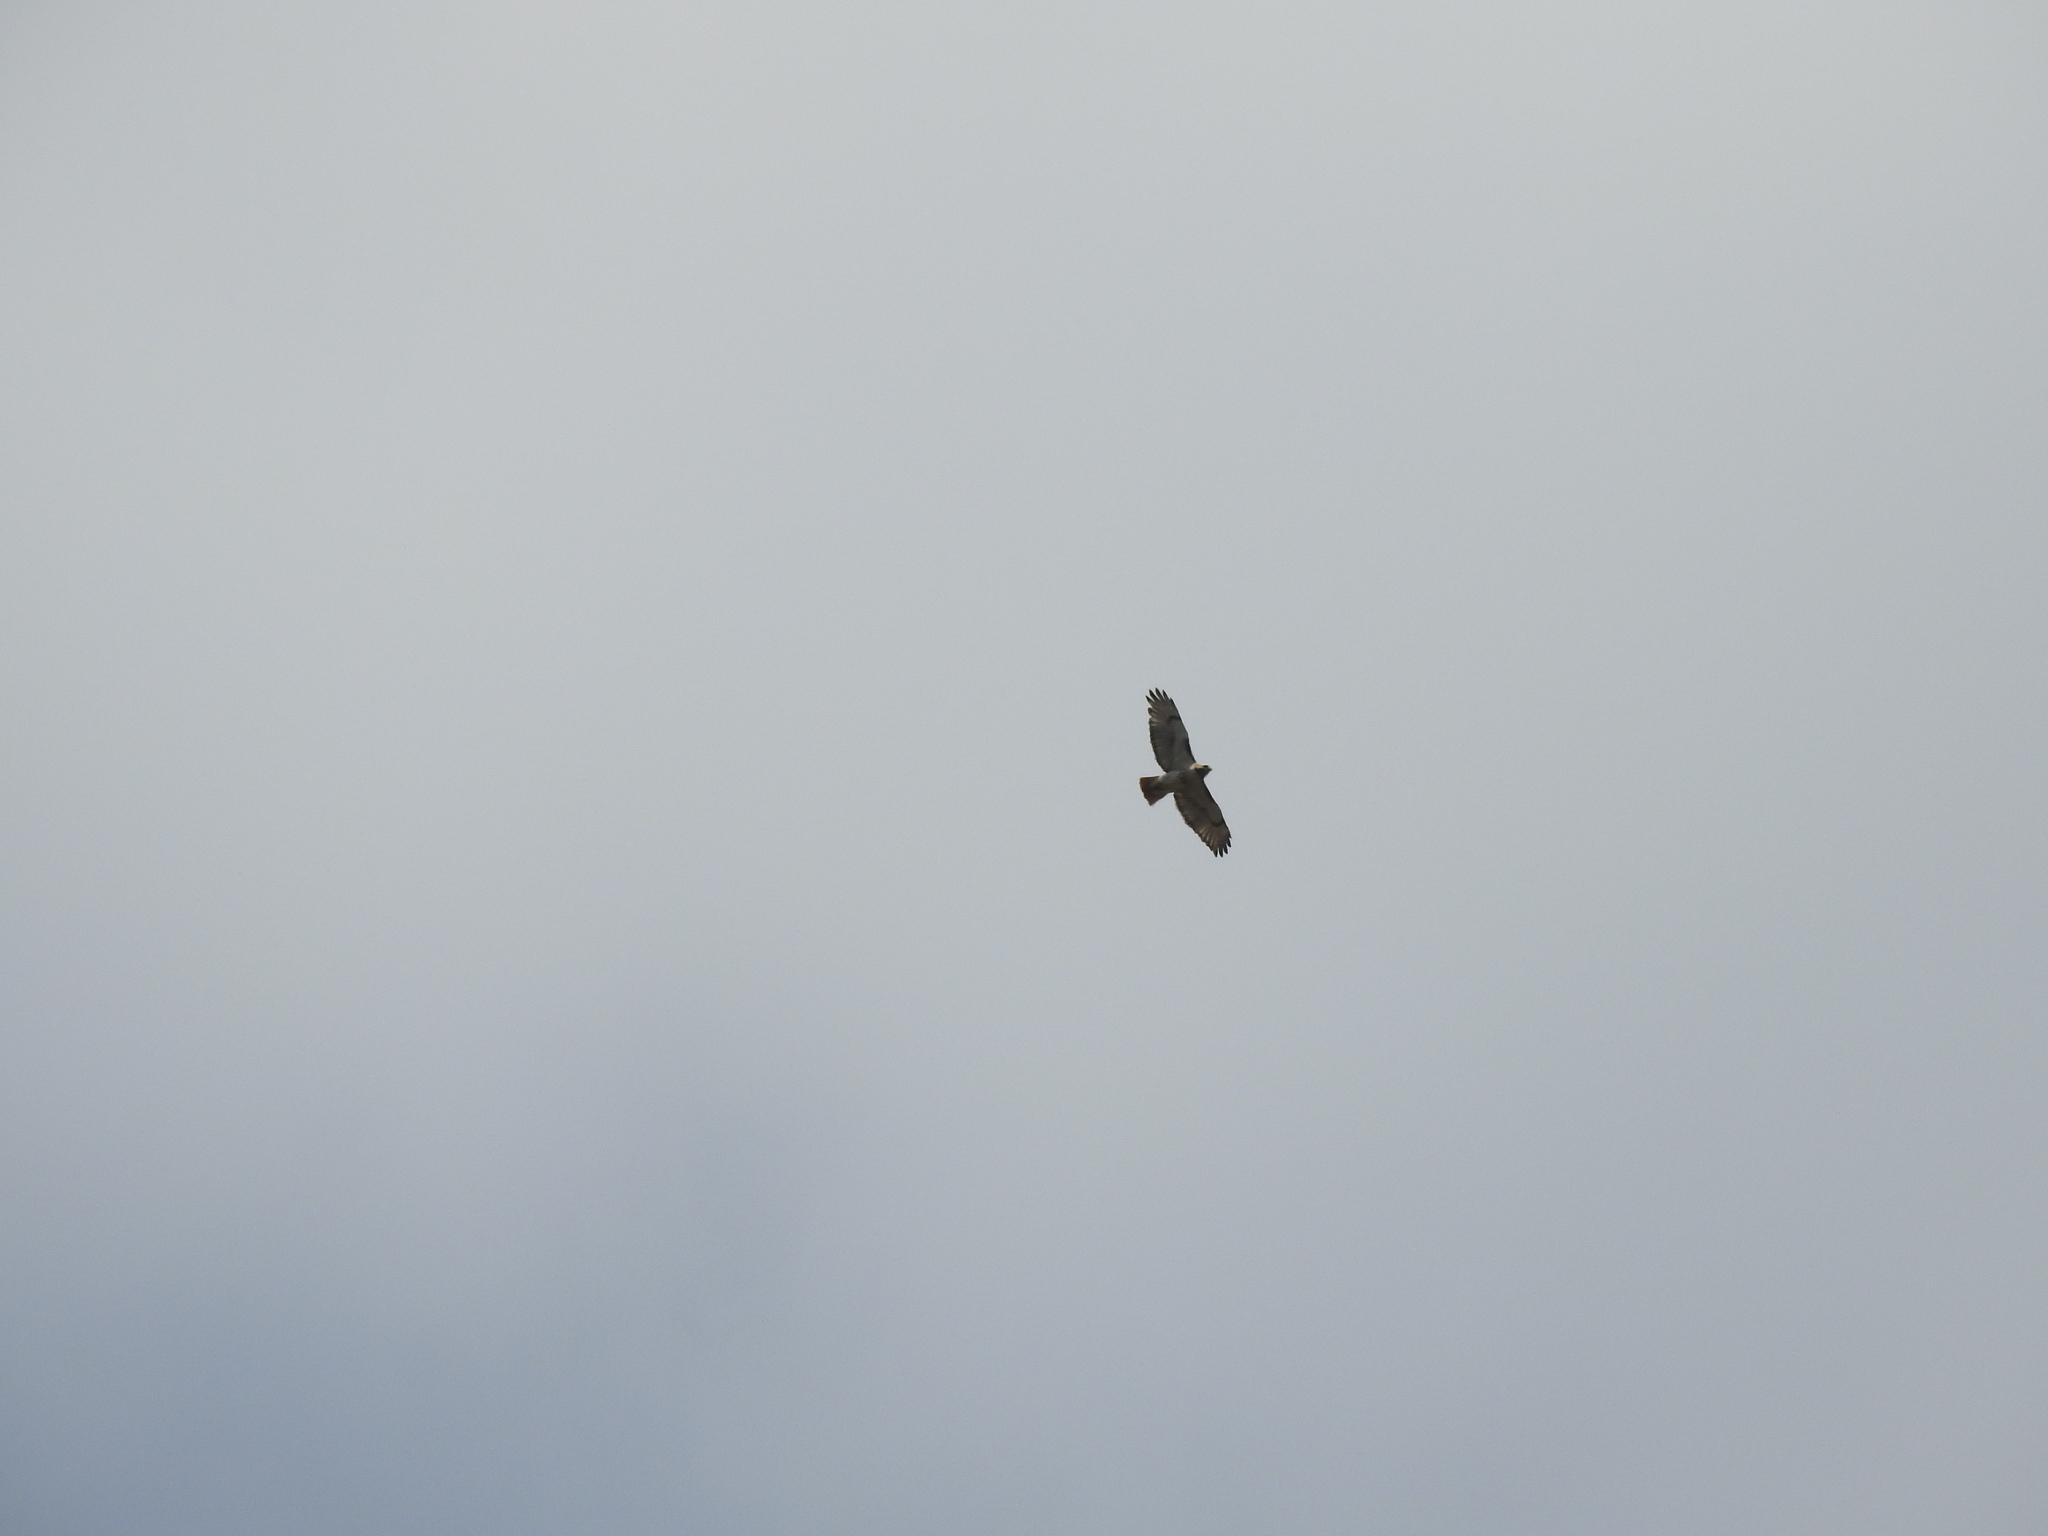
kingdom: Animalia
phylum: Chordata
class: Aves
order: Accipitriformes
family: Accipitridae
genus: Buteo
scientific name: Buteo jamaicensis
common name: Red-tailed hawk
